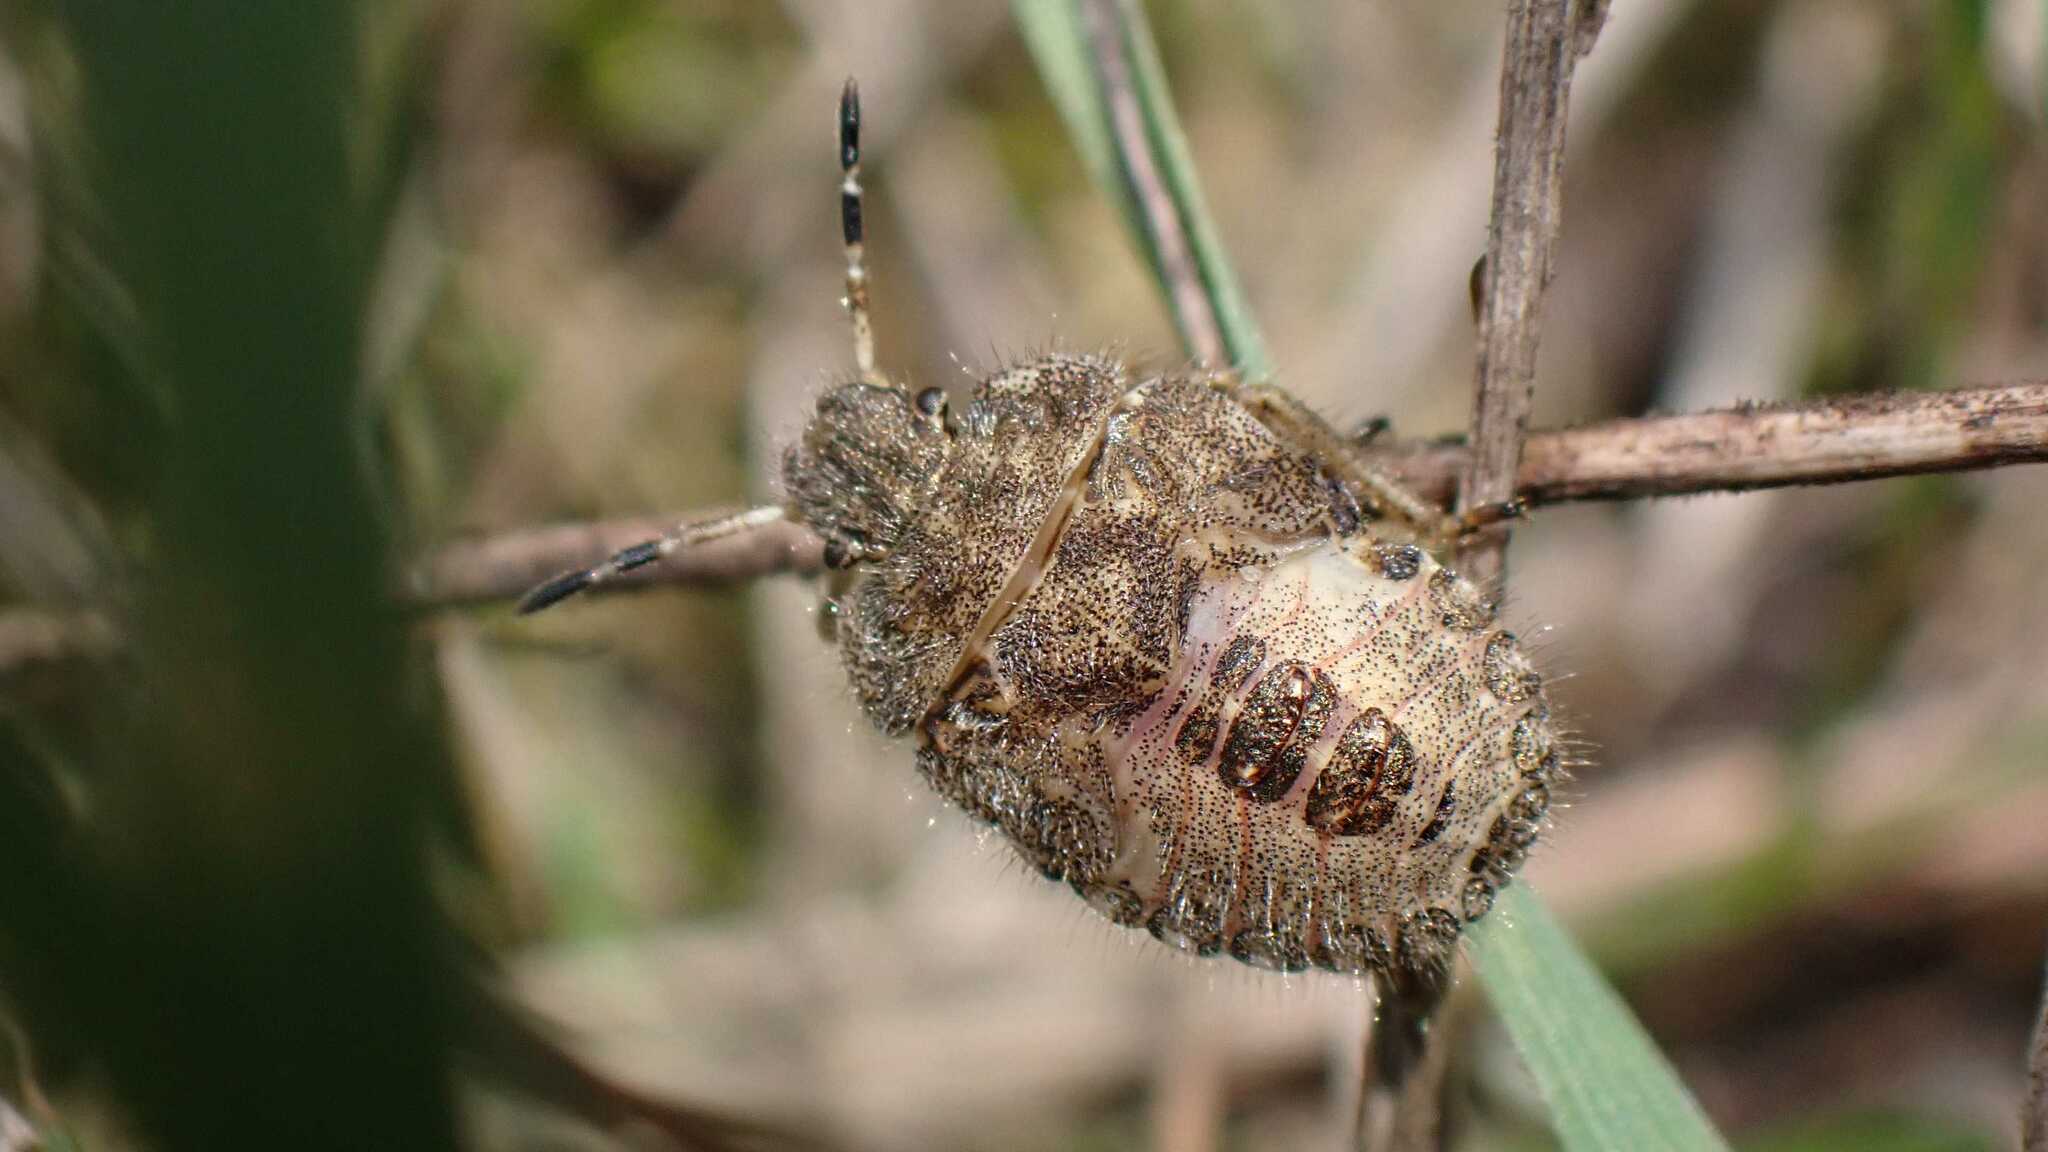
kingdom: Animalia
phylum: Arthropoda
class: Insecta
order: Hemiptera
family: Pentatomidae
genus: Dolycoris
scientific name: Dolycoris baccarum
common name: Sloe bug
